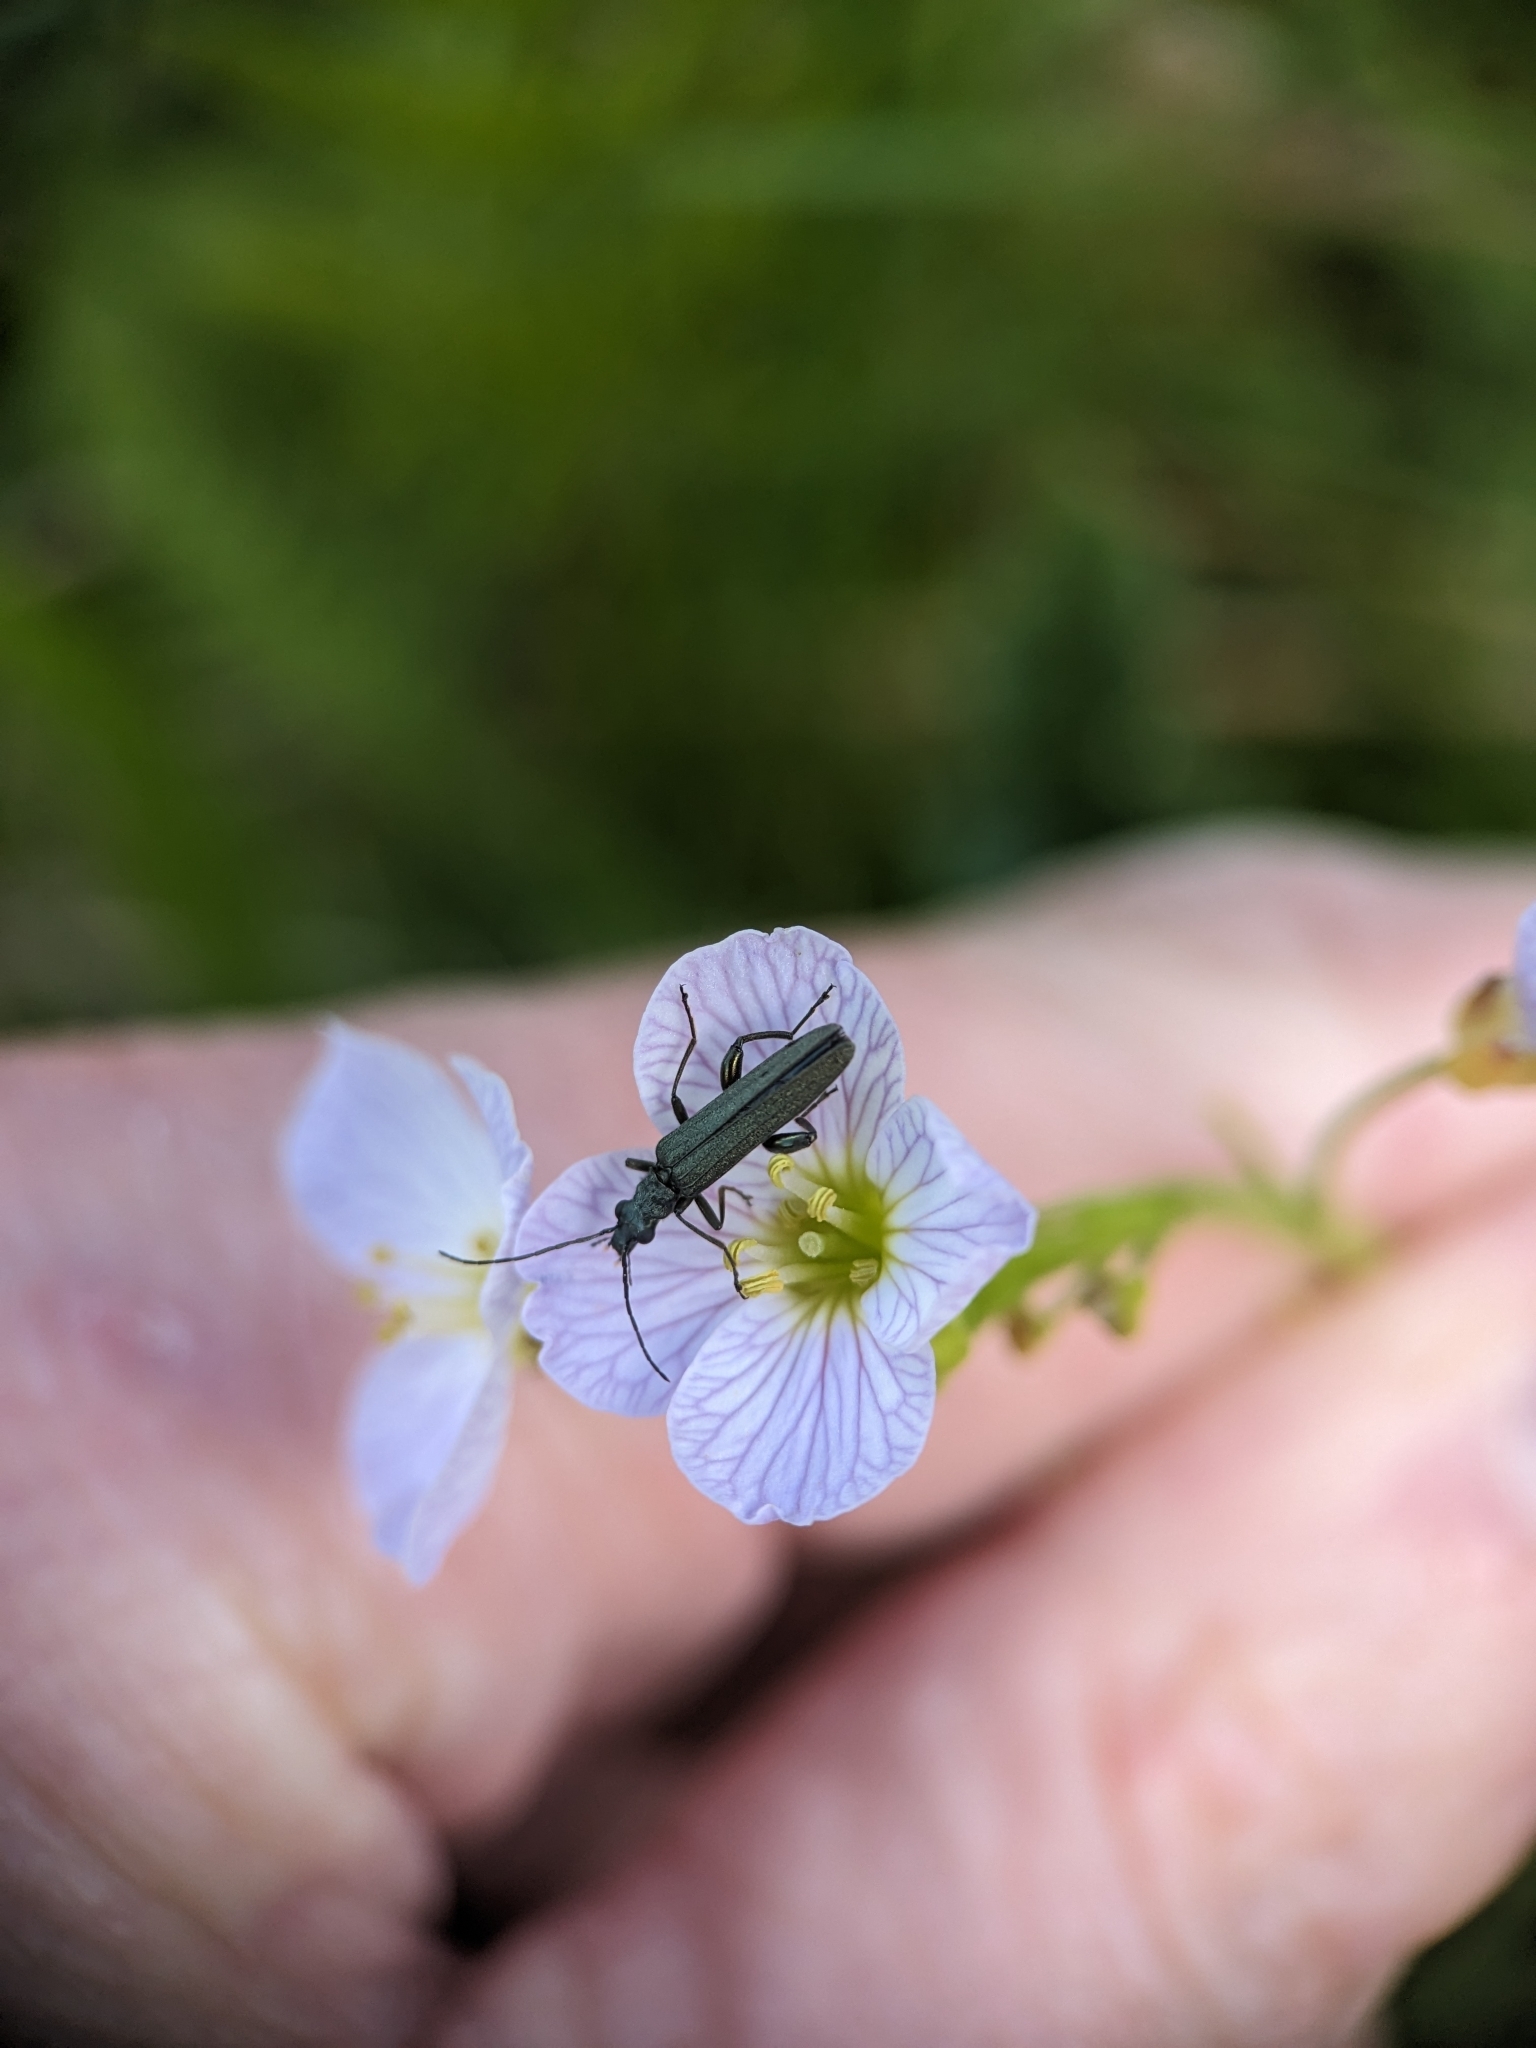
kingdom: Animalia
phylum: Arthropoda
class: Insecta
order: Coleoptera
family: Oedemeridae
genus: Oedemera
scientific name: Oedemera virescens
